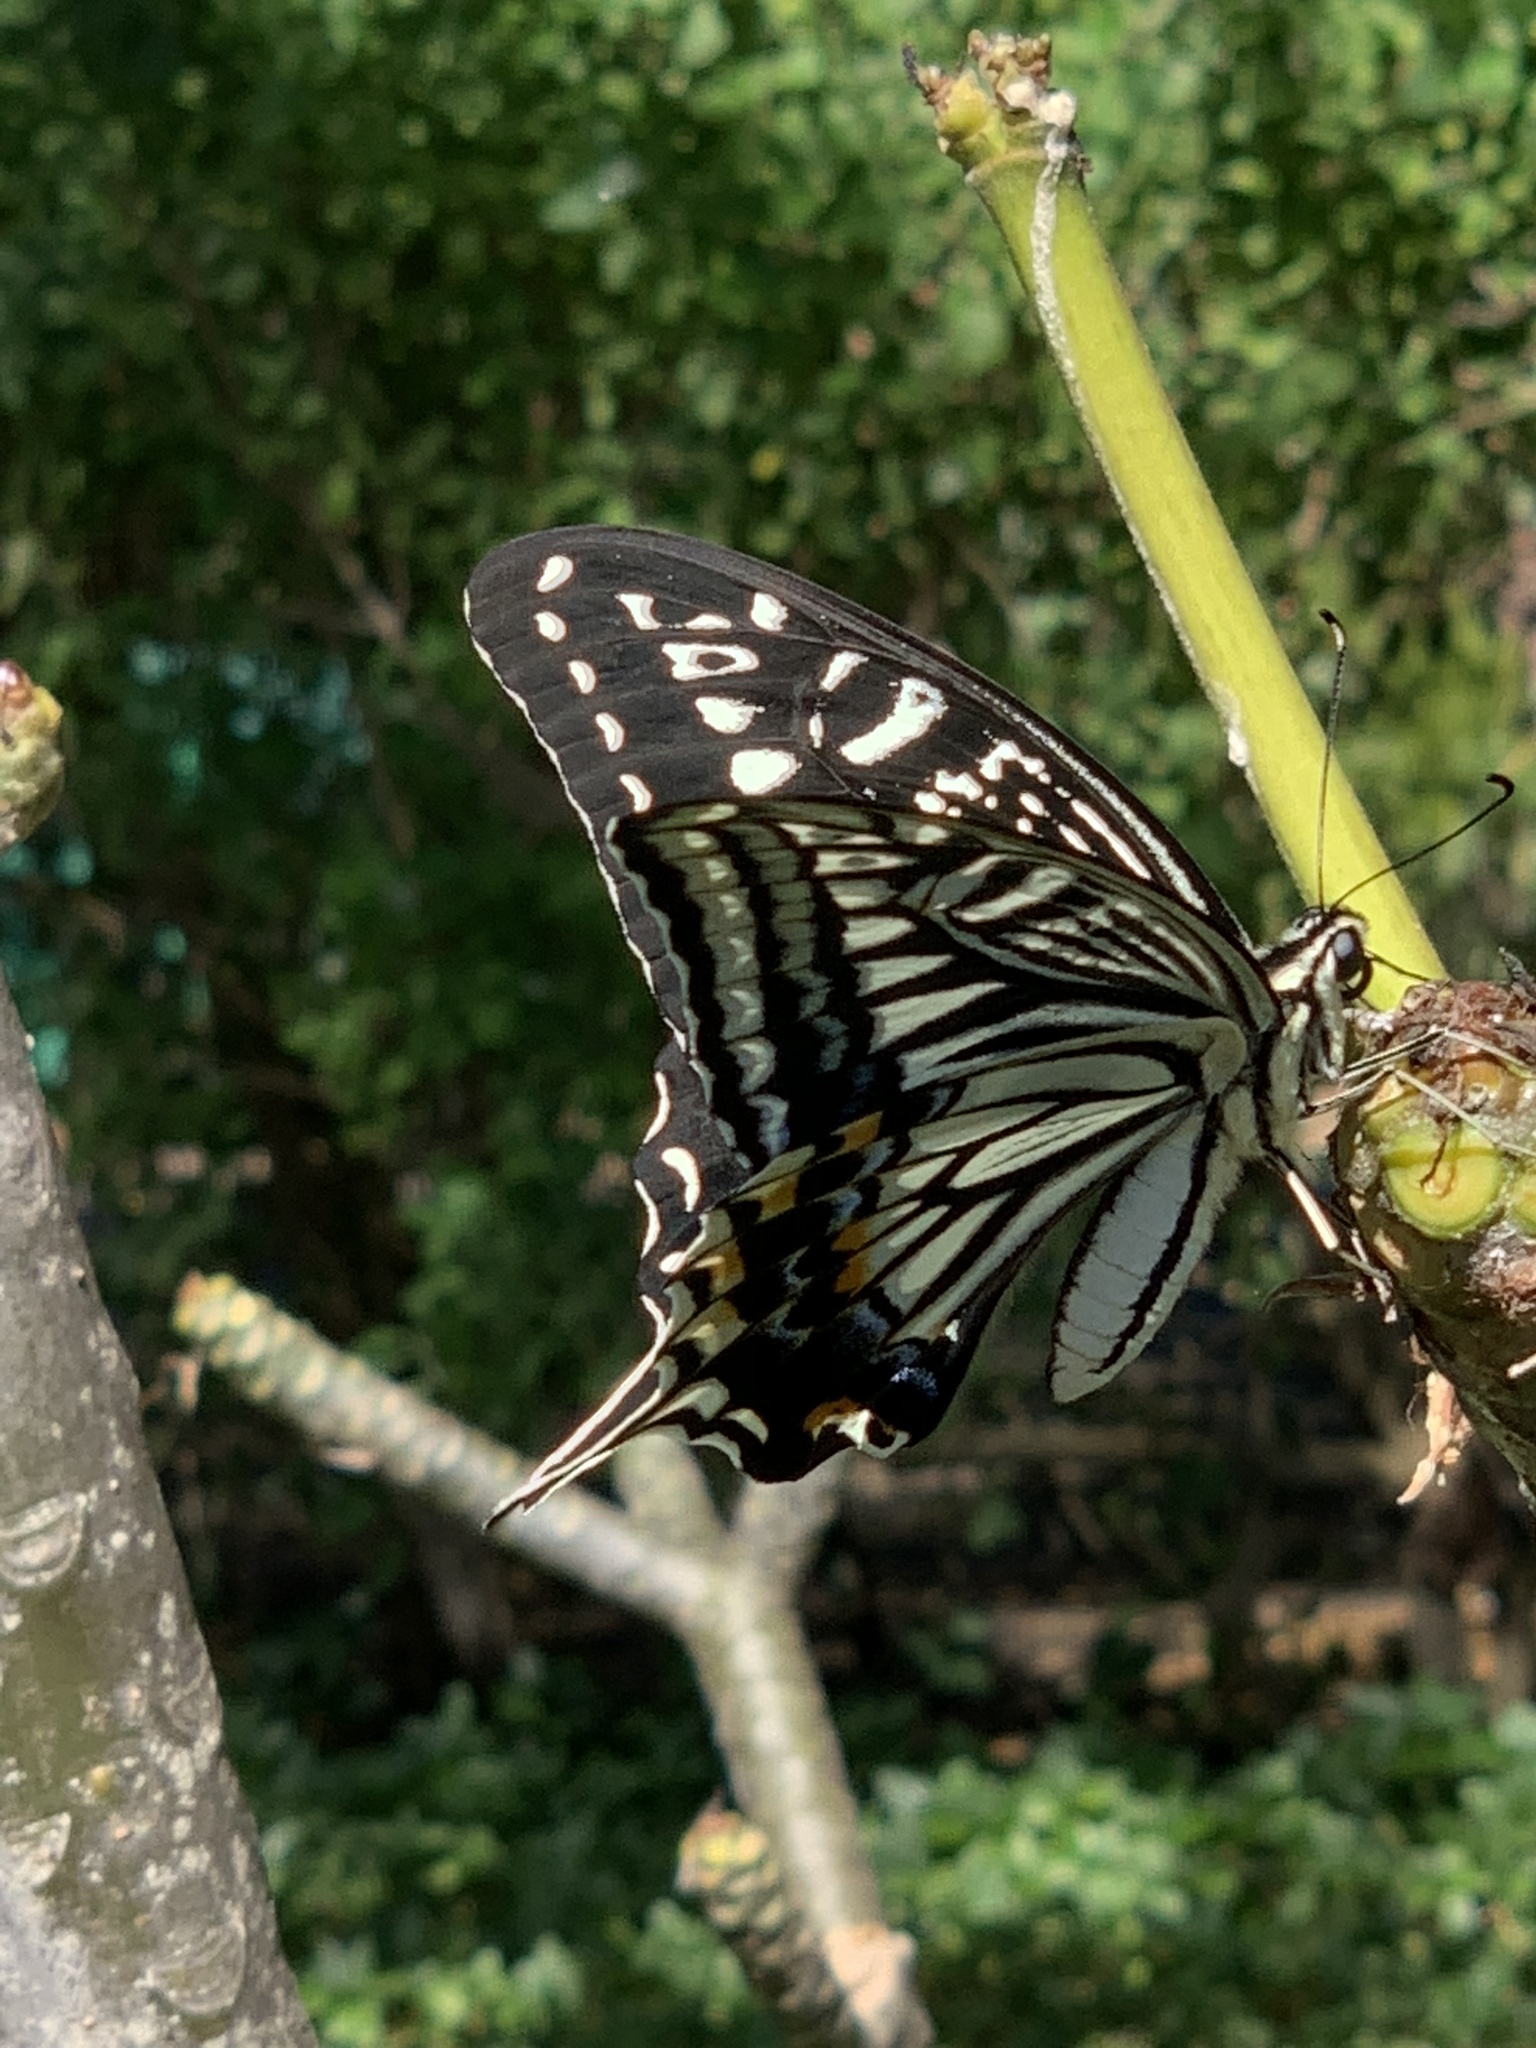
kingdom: Animalia
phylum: Arthropoda
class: Insecta
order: Lepidoptera
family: Papilionidae
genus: Papilio
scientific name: Papilio xuthus
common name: Asian swallowtail
